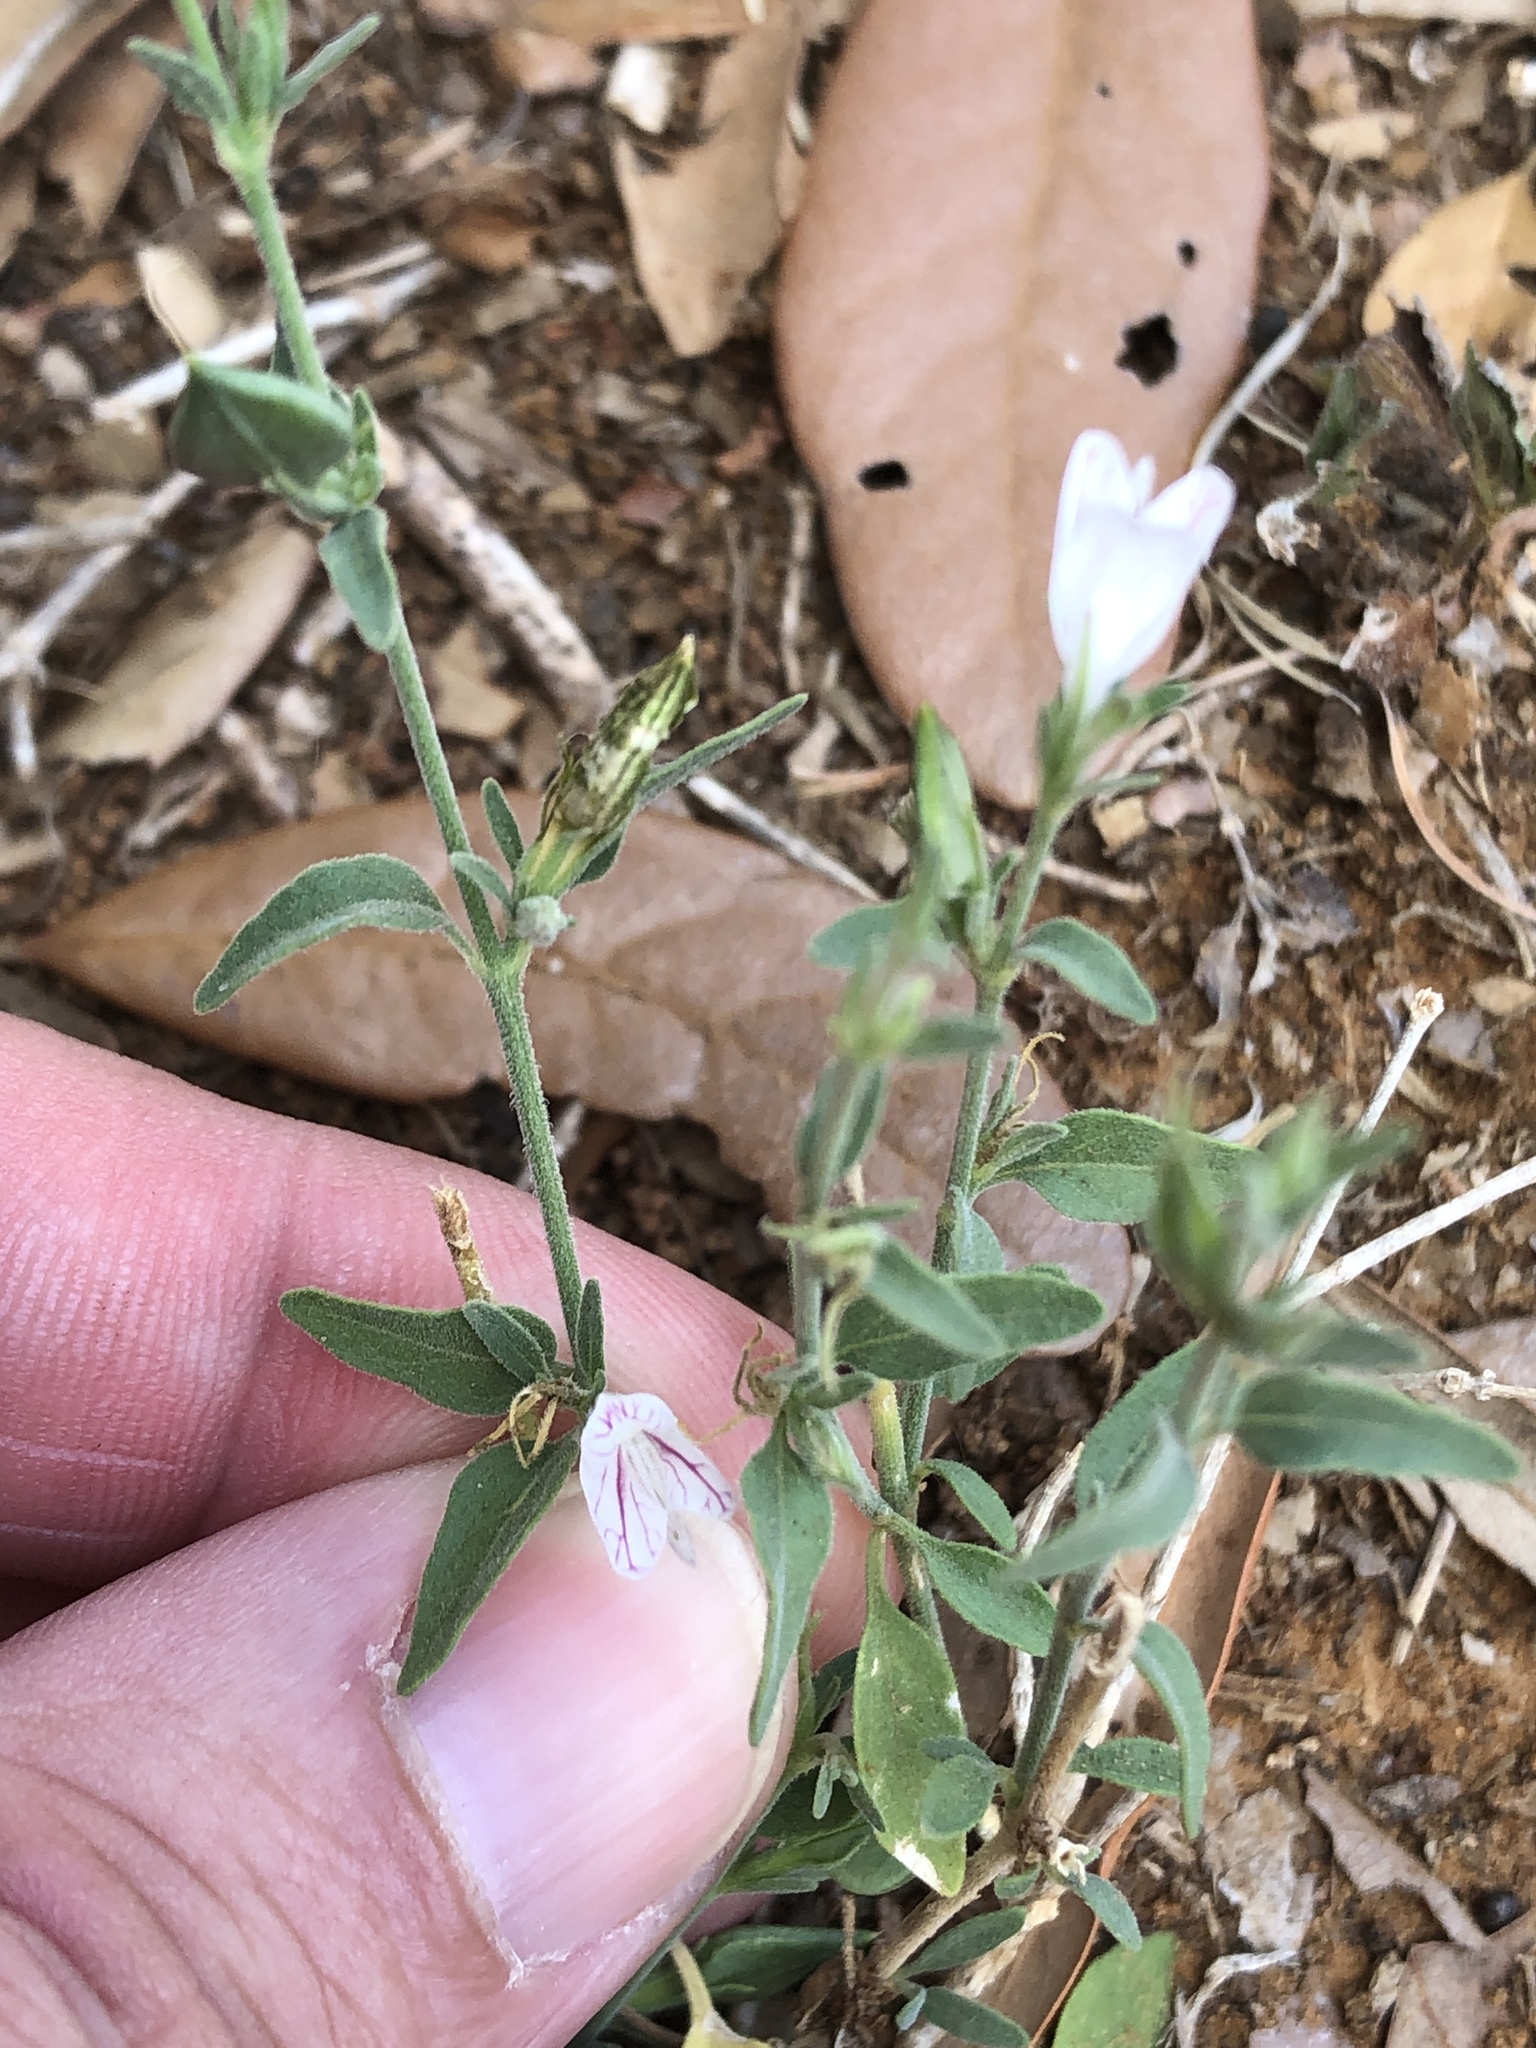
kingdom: Plantae
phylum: Tracheophyta
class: Magnoliopsida
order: Lamiales
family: Acanthaceae
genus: Carlowrightia
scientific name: Carlowrightia texana
